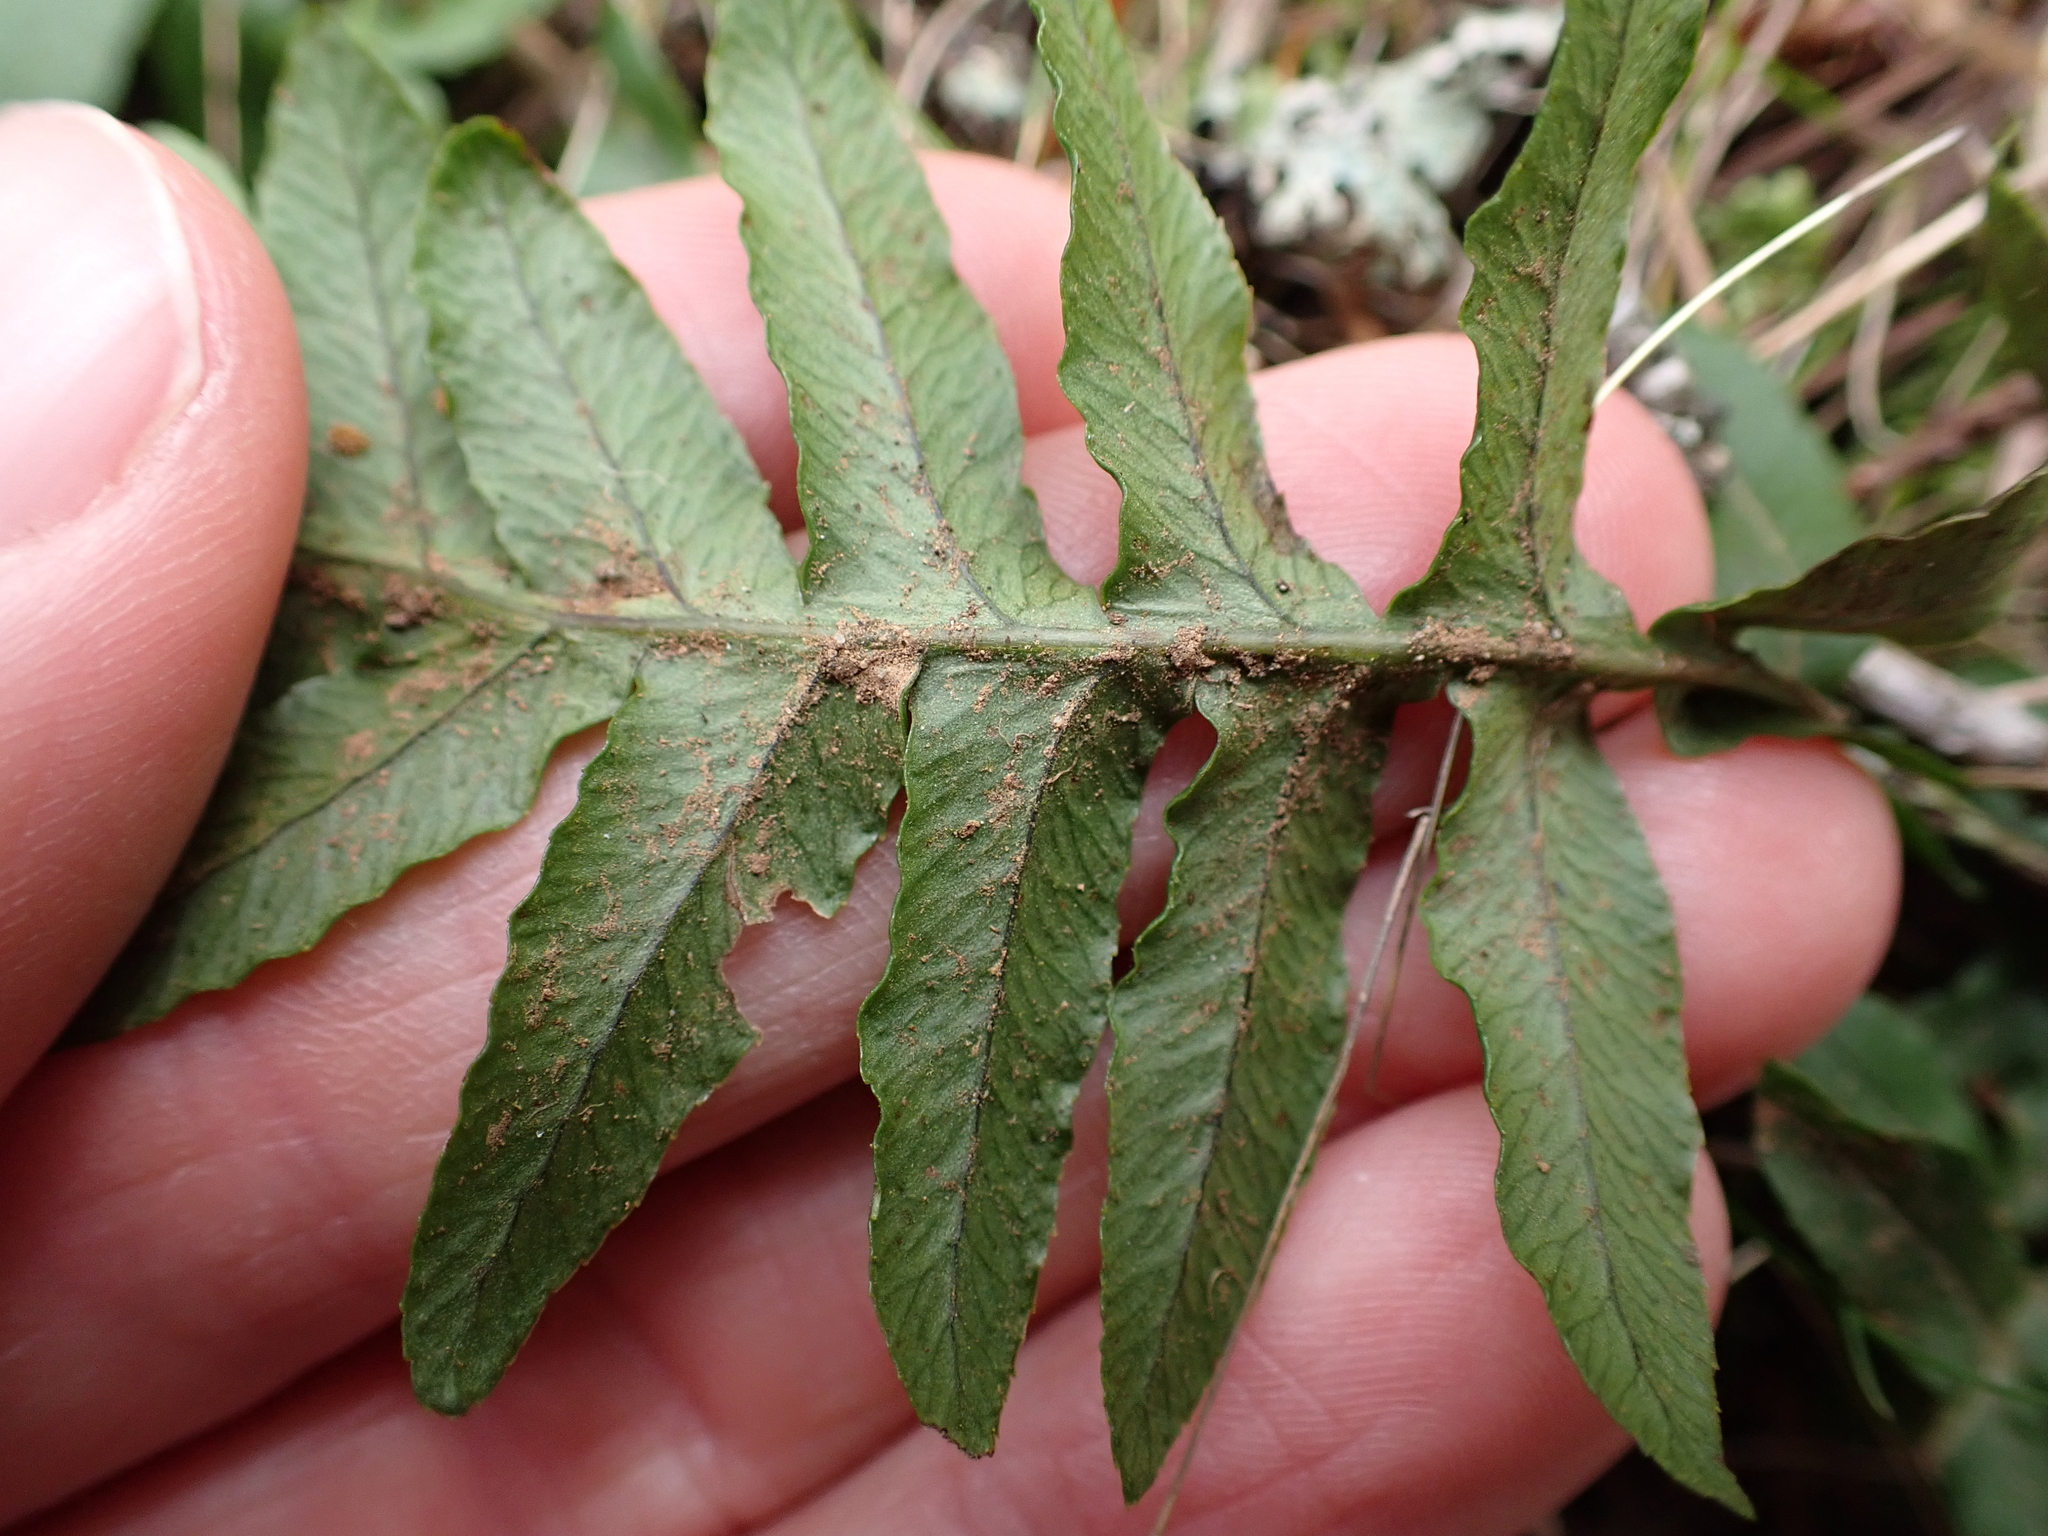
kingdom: Plantae
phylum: Tracheophyta
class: Polypodiopsida
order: Polypodiales
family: Polypodiaceae
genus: Polypodium
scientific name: Polypodium glycyrrhiza
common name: Licorice fern
